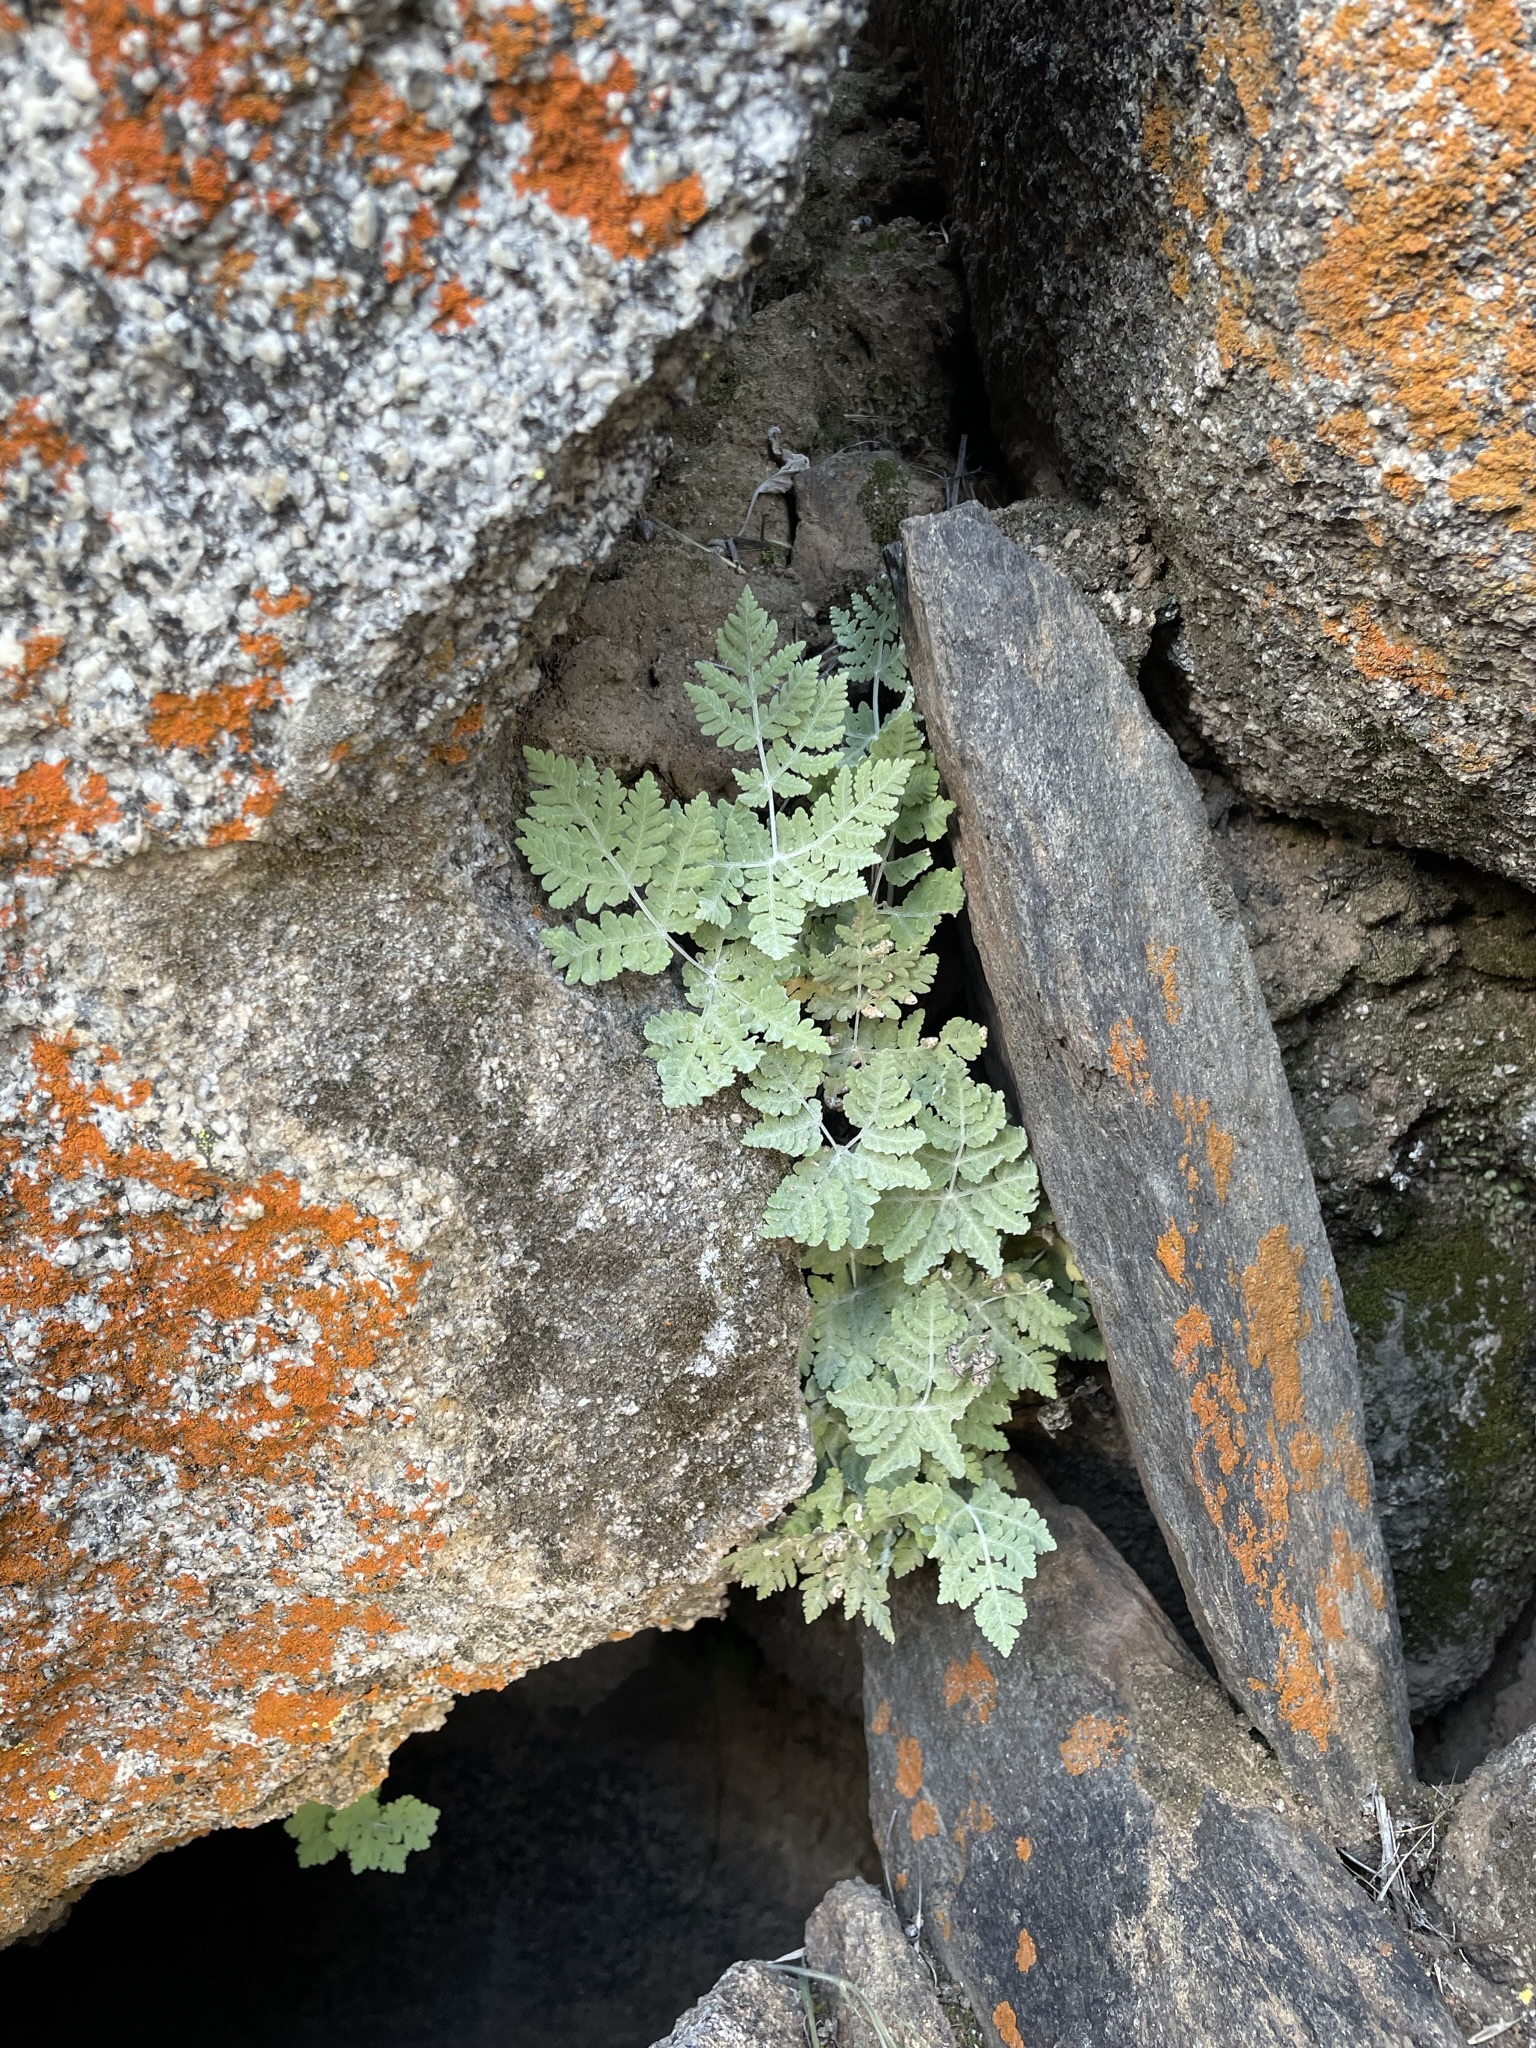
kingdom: Plantae
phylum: Tracheophyta
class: Polypodiopsida
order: Polypodiales
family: Pteridaceae
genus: Pentagramma
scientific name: Pentagramma pallida
